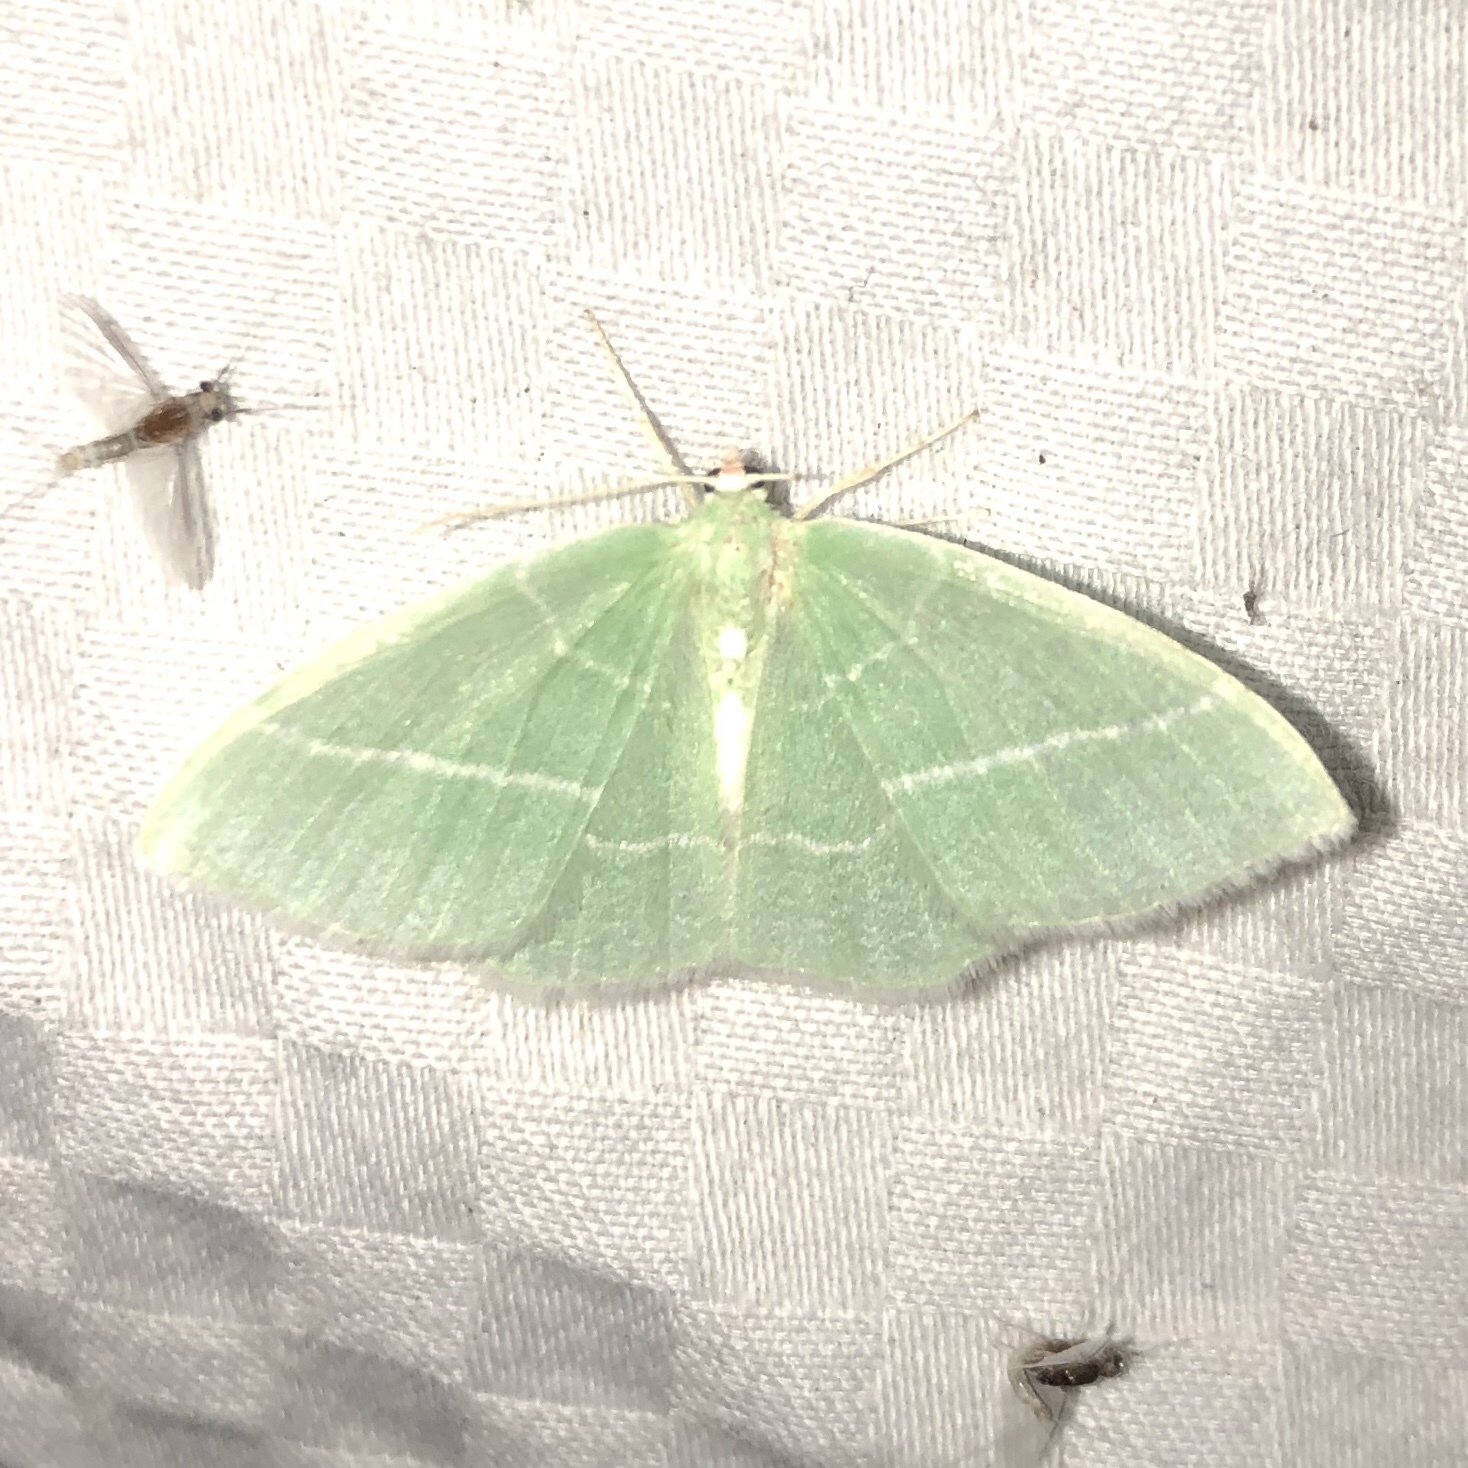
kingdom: Animalia
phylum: Arthropoda
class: Insecta
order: Lepidoptera
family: Geometridae
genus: Nemoria
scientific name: Nemoria mimosaria
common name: White-fringed emerald
